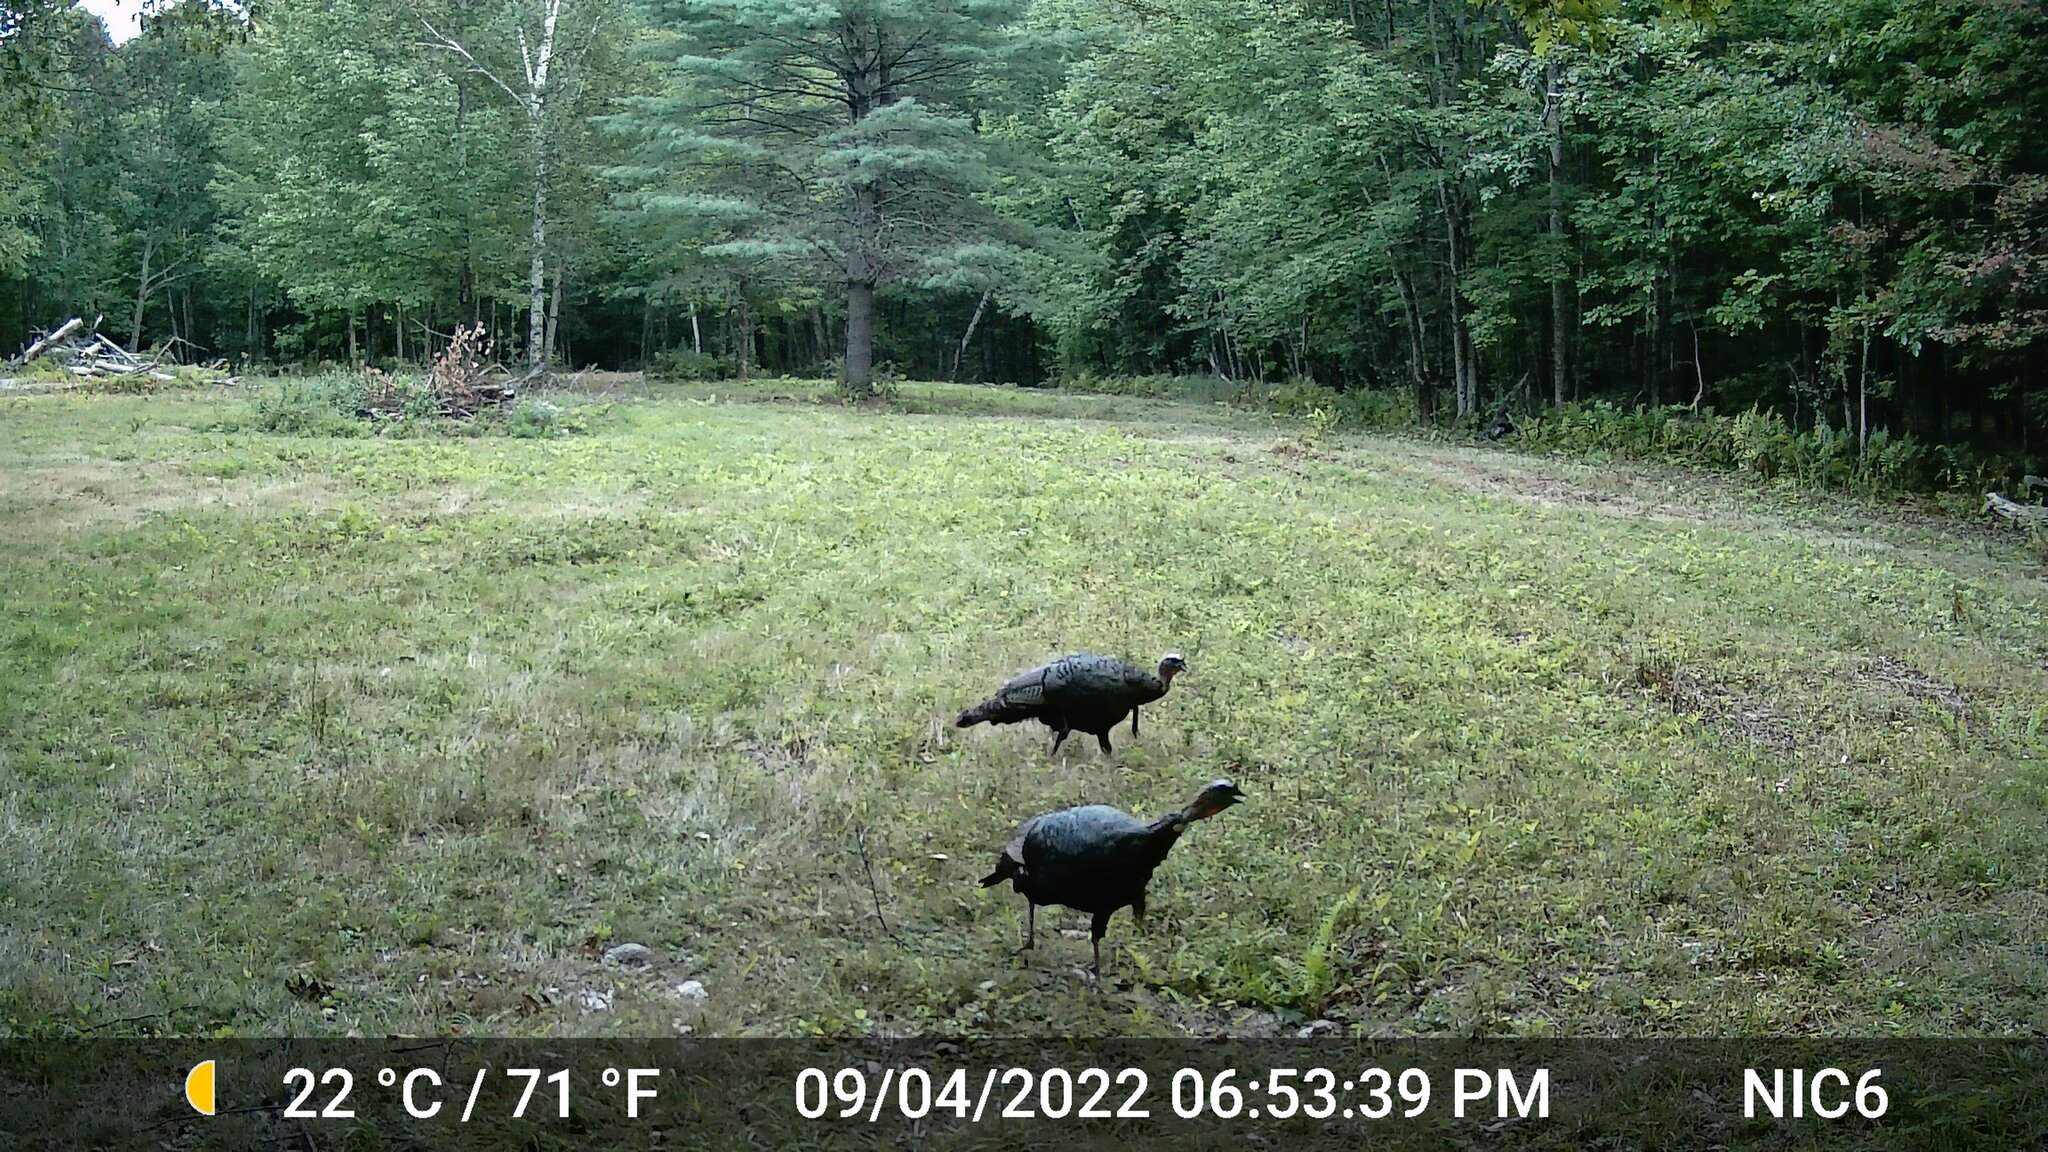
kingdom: Animalia
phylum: Chordata
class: Aves
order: Galliformes
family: Phasianidae
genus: Meleagris
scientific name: Meleagris gallopavo
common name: Wild turkey
